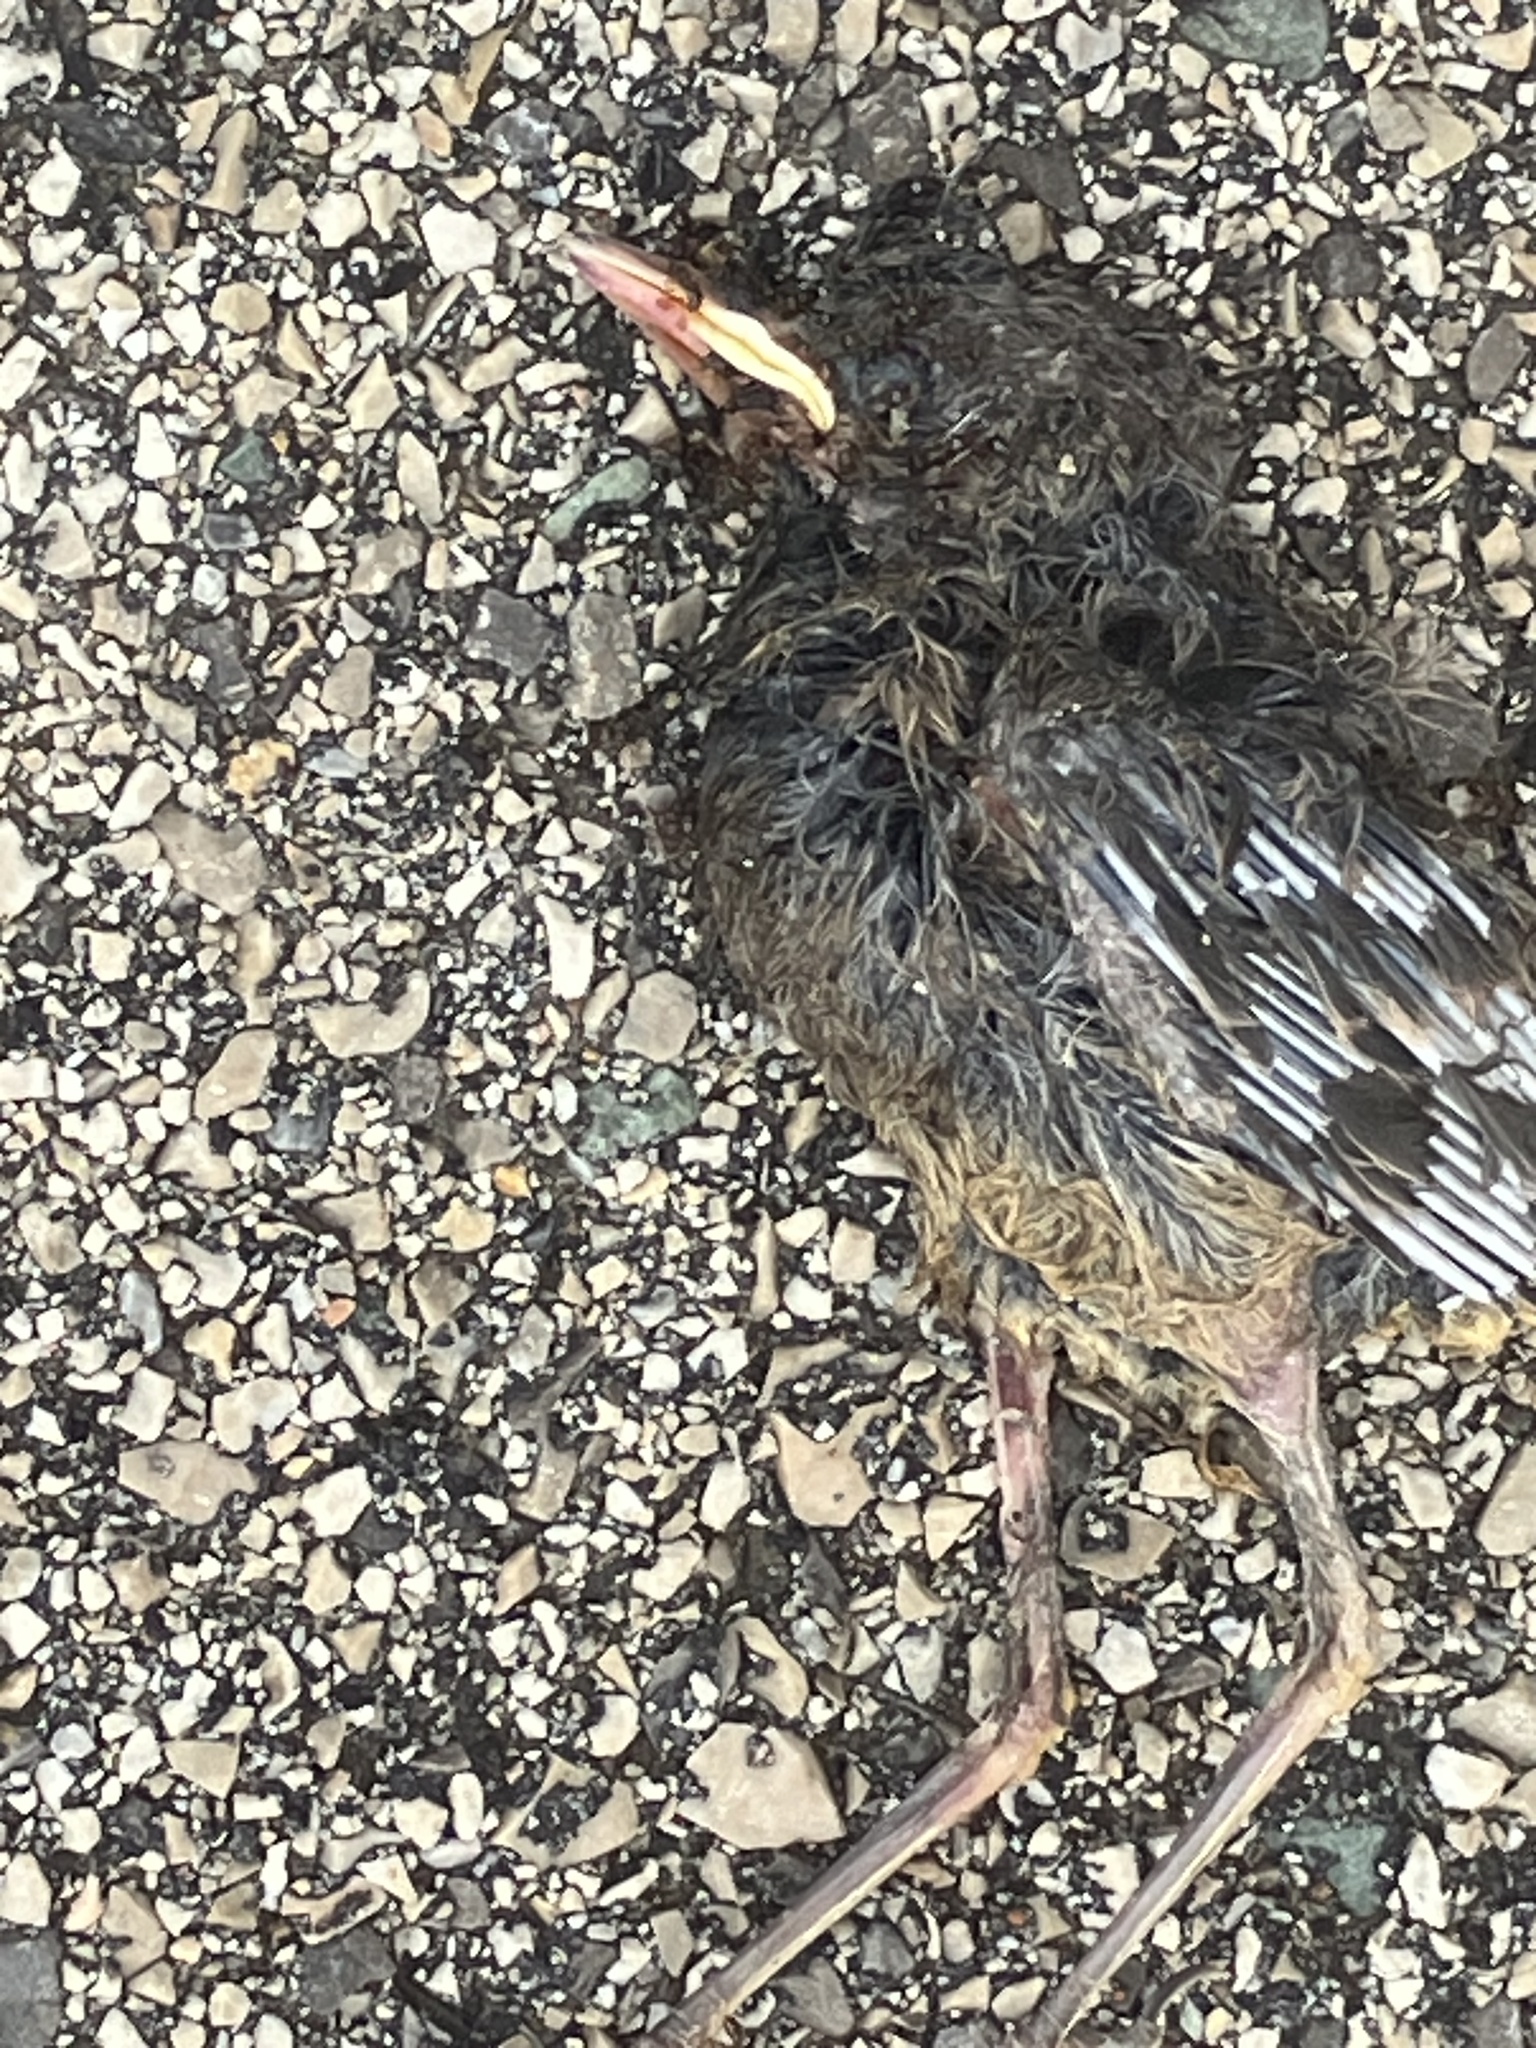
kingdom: Animalia
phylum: Chordata
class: Aves
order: Passeriformes
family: Turdidae
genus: Turdus
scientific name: Turdus merula
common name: Common blackbird
